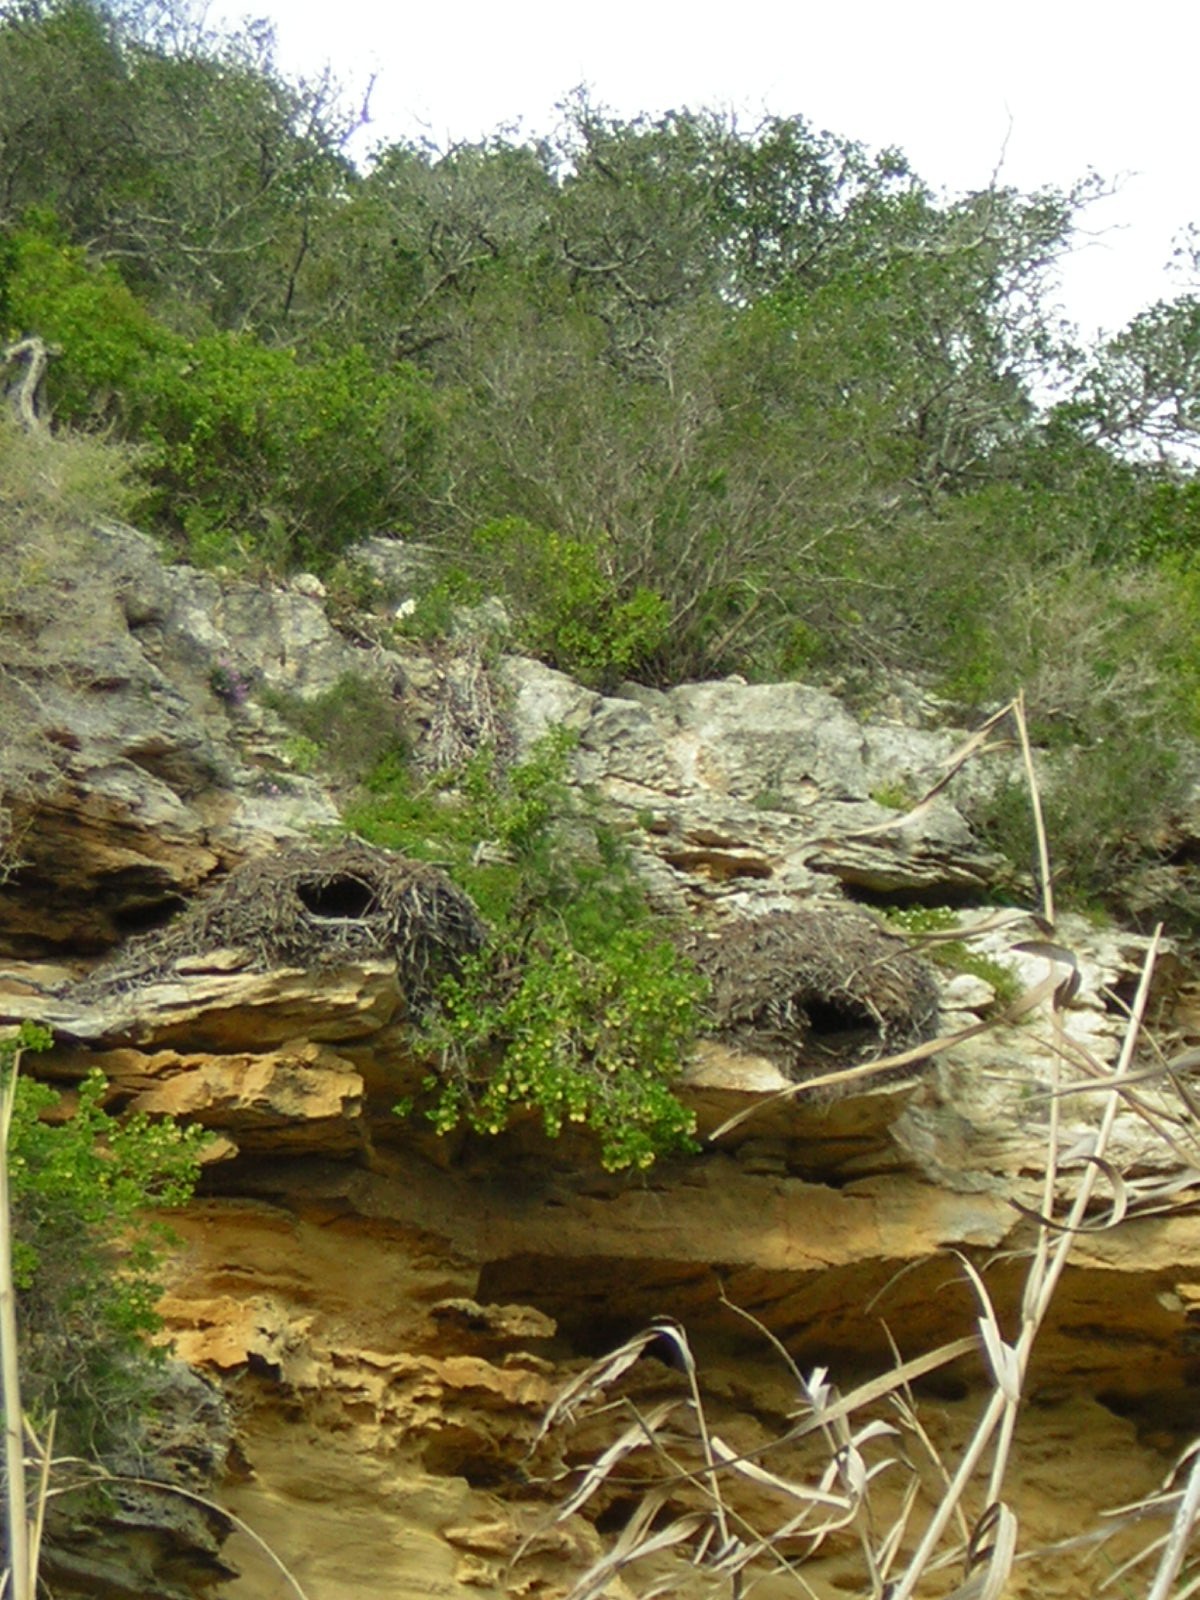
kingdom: Animalia
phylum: Chordata
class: Aves
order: Pelecaniformes
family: Scopidae
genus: Scopus
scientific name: Scopus umbretta
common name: Hamerkop
